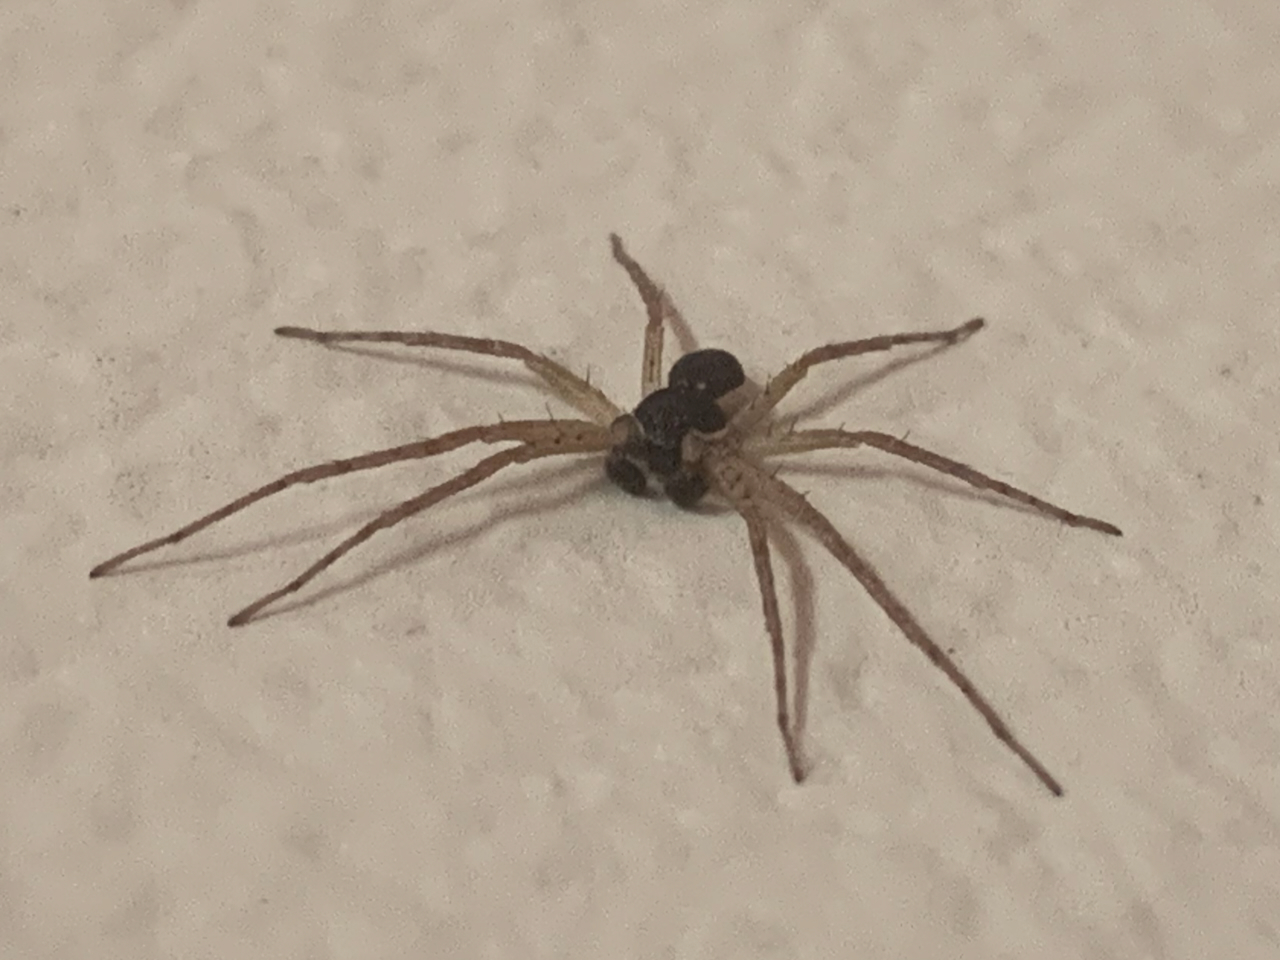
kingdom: Animalia
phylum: Arthropoda
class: Arachnida
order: Araneae
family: Philodromidae
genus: Philodromus
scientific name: Philodromus dispar
